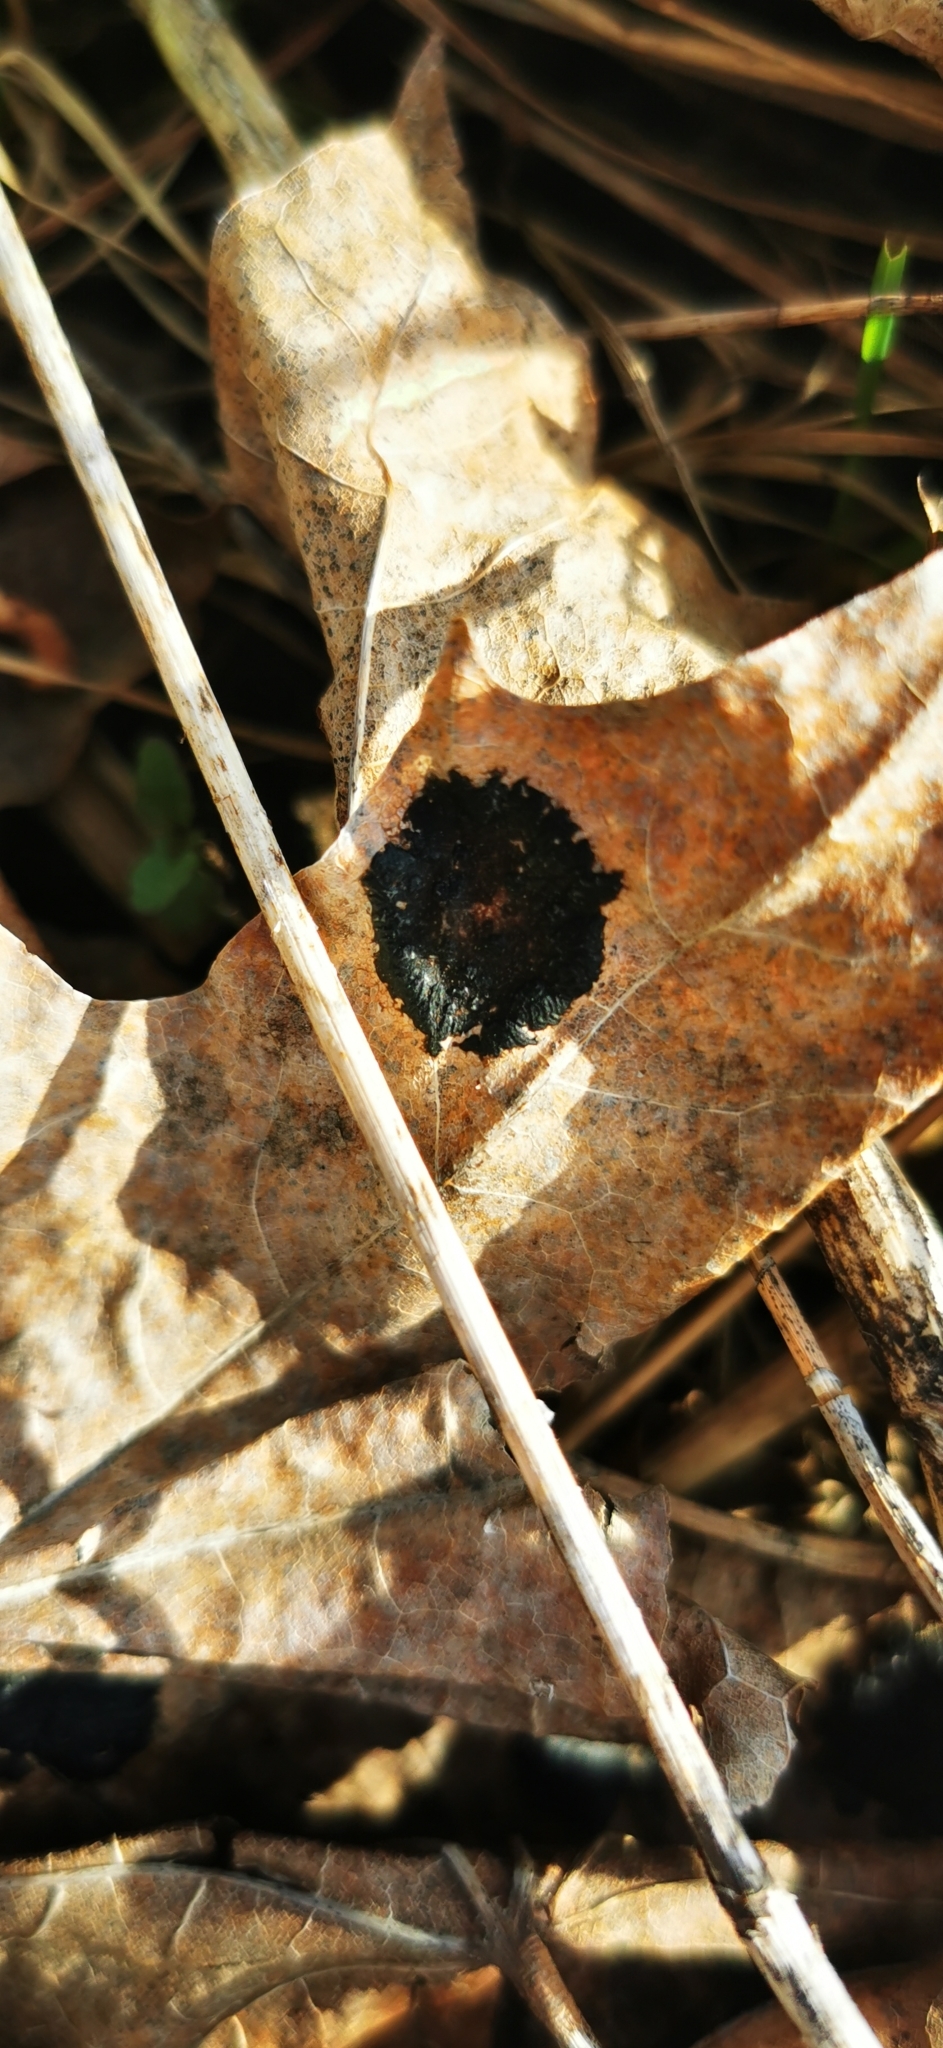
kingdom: Fungi
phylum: Ascomycota
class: Leotiomycetes
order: Rhytismatales
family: Rhytismataceae
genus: Rhytisma
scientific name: Rhytisma acerinum
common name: European tar spot
